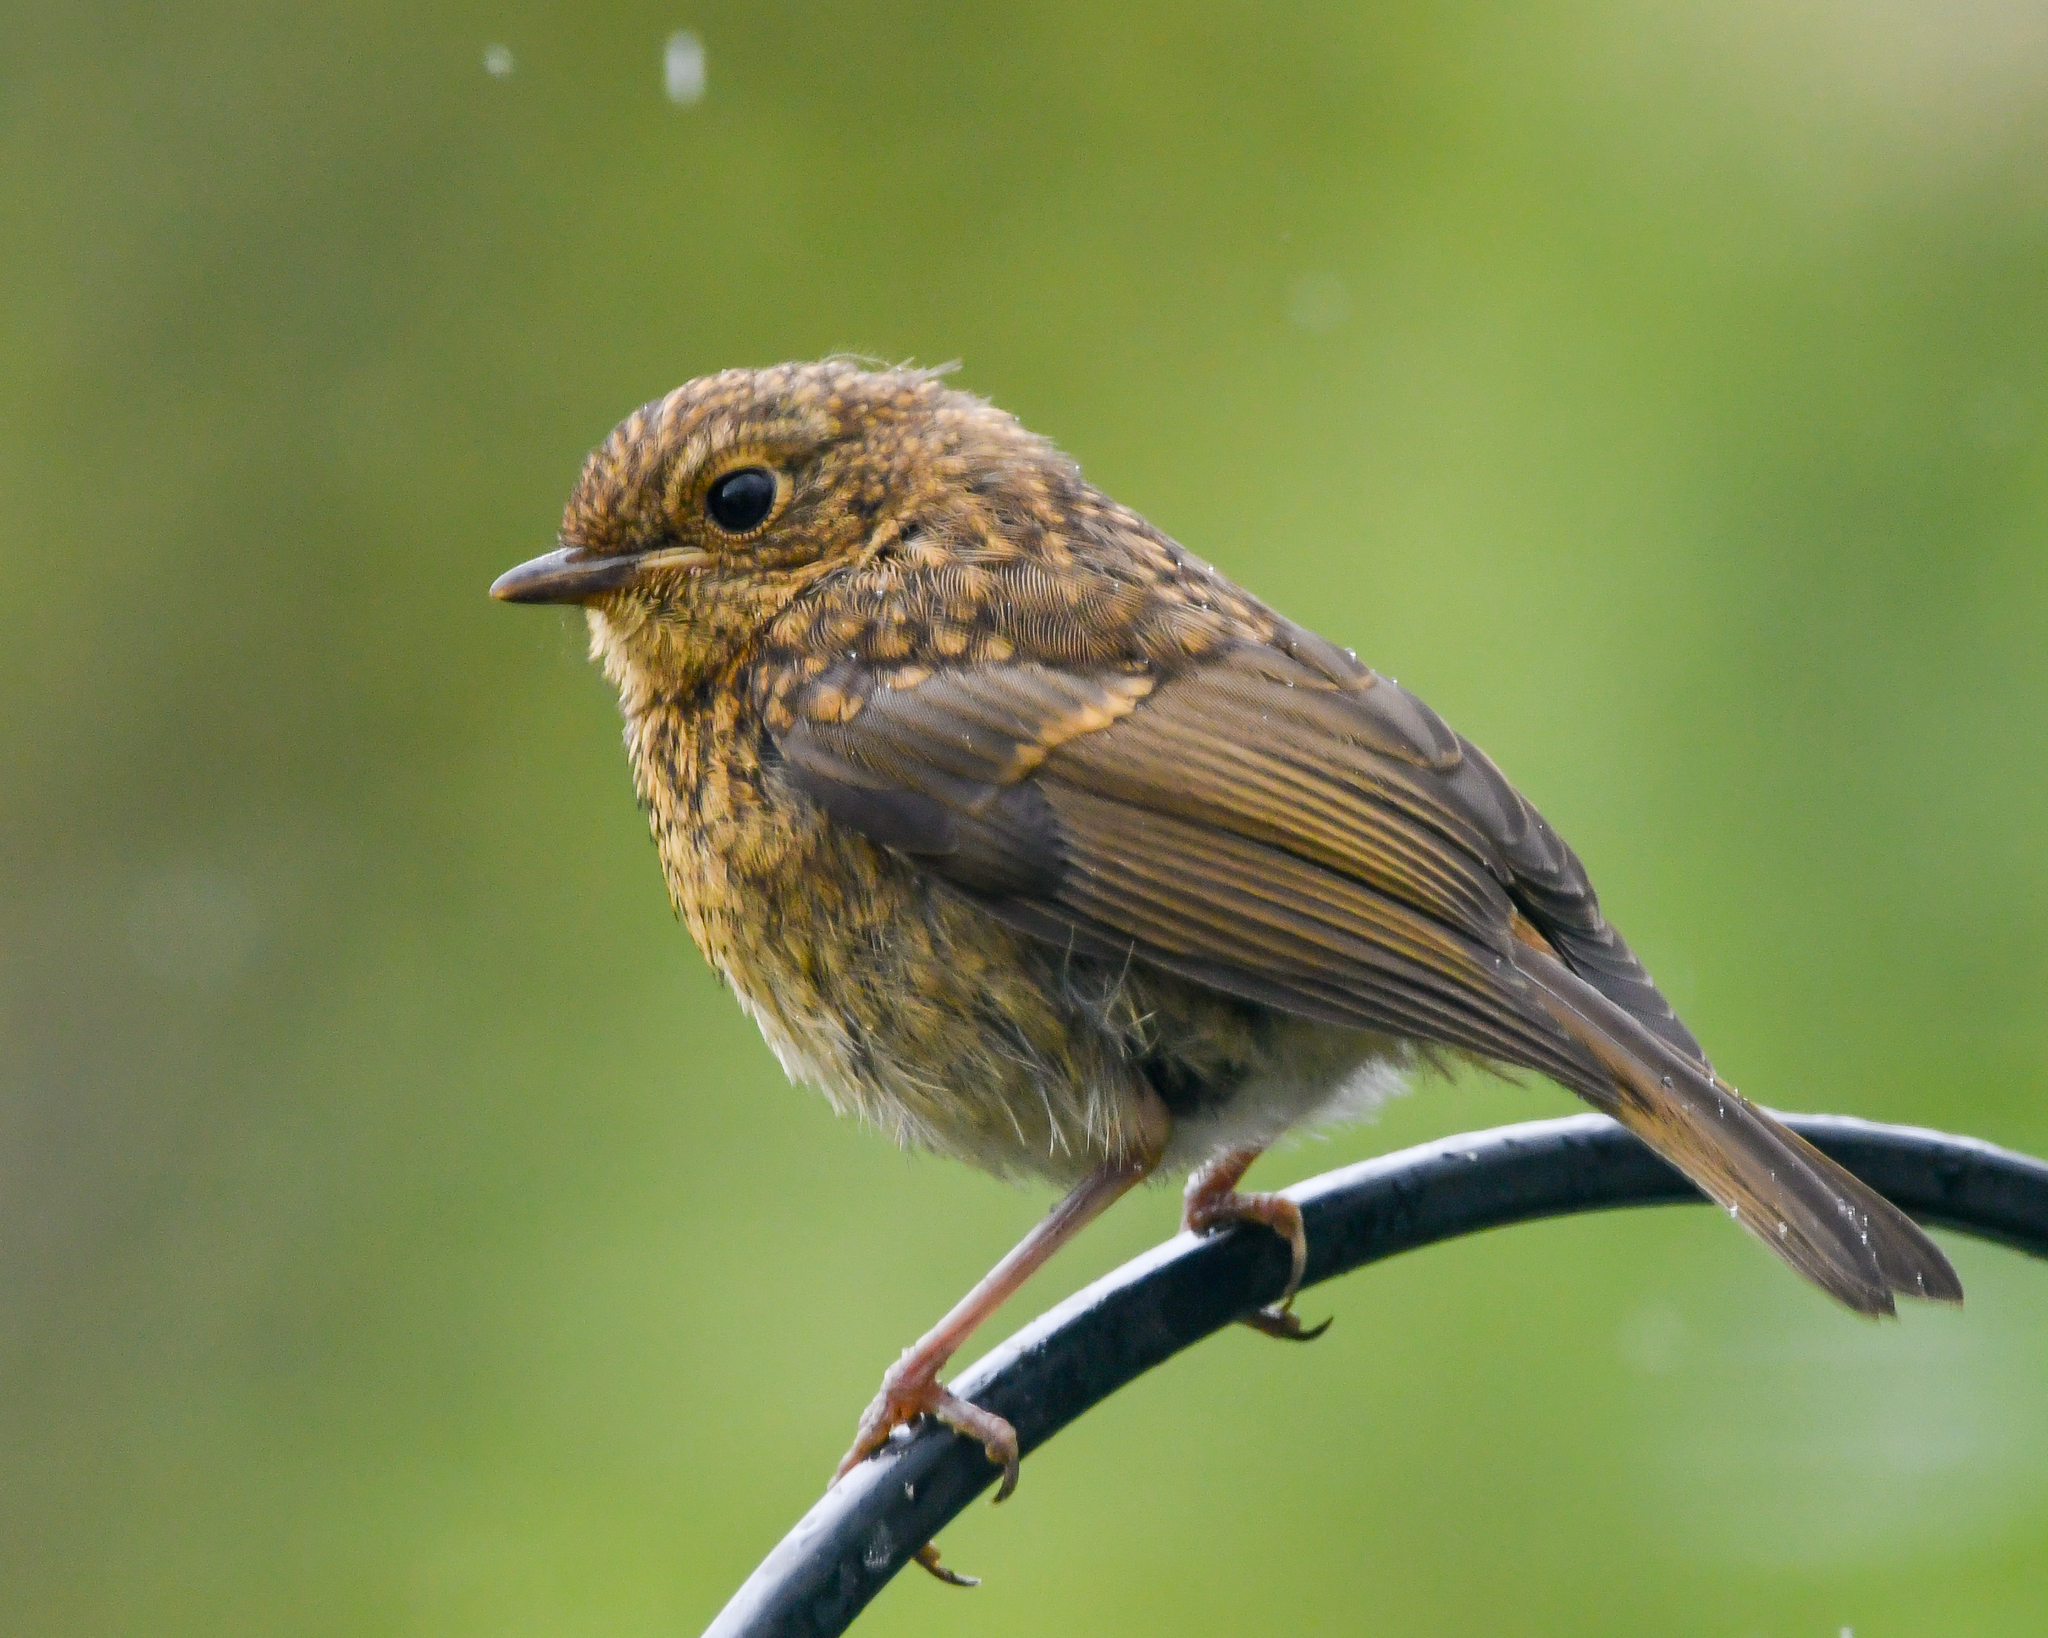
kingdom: Animalia
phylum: Chordata
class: Aves
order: Passeriformes
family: Muscicapidae
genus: Erithacus
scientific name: Erithacus rubecula
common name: European robin
